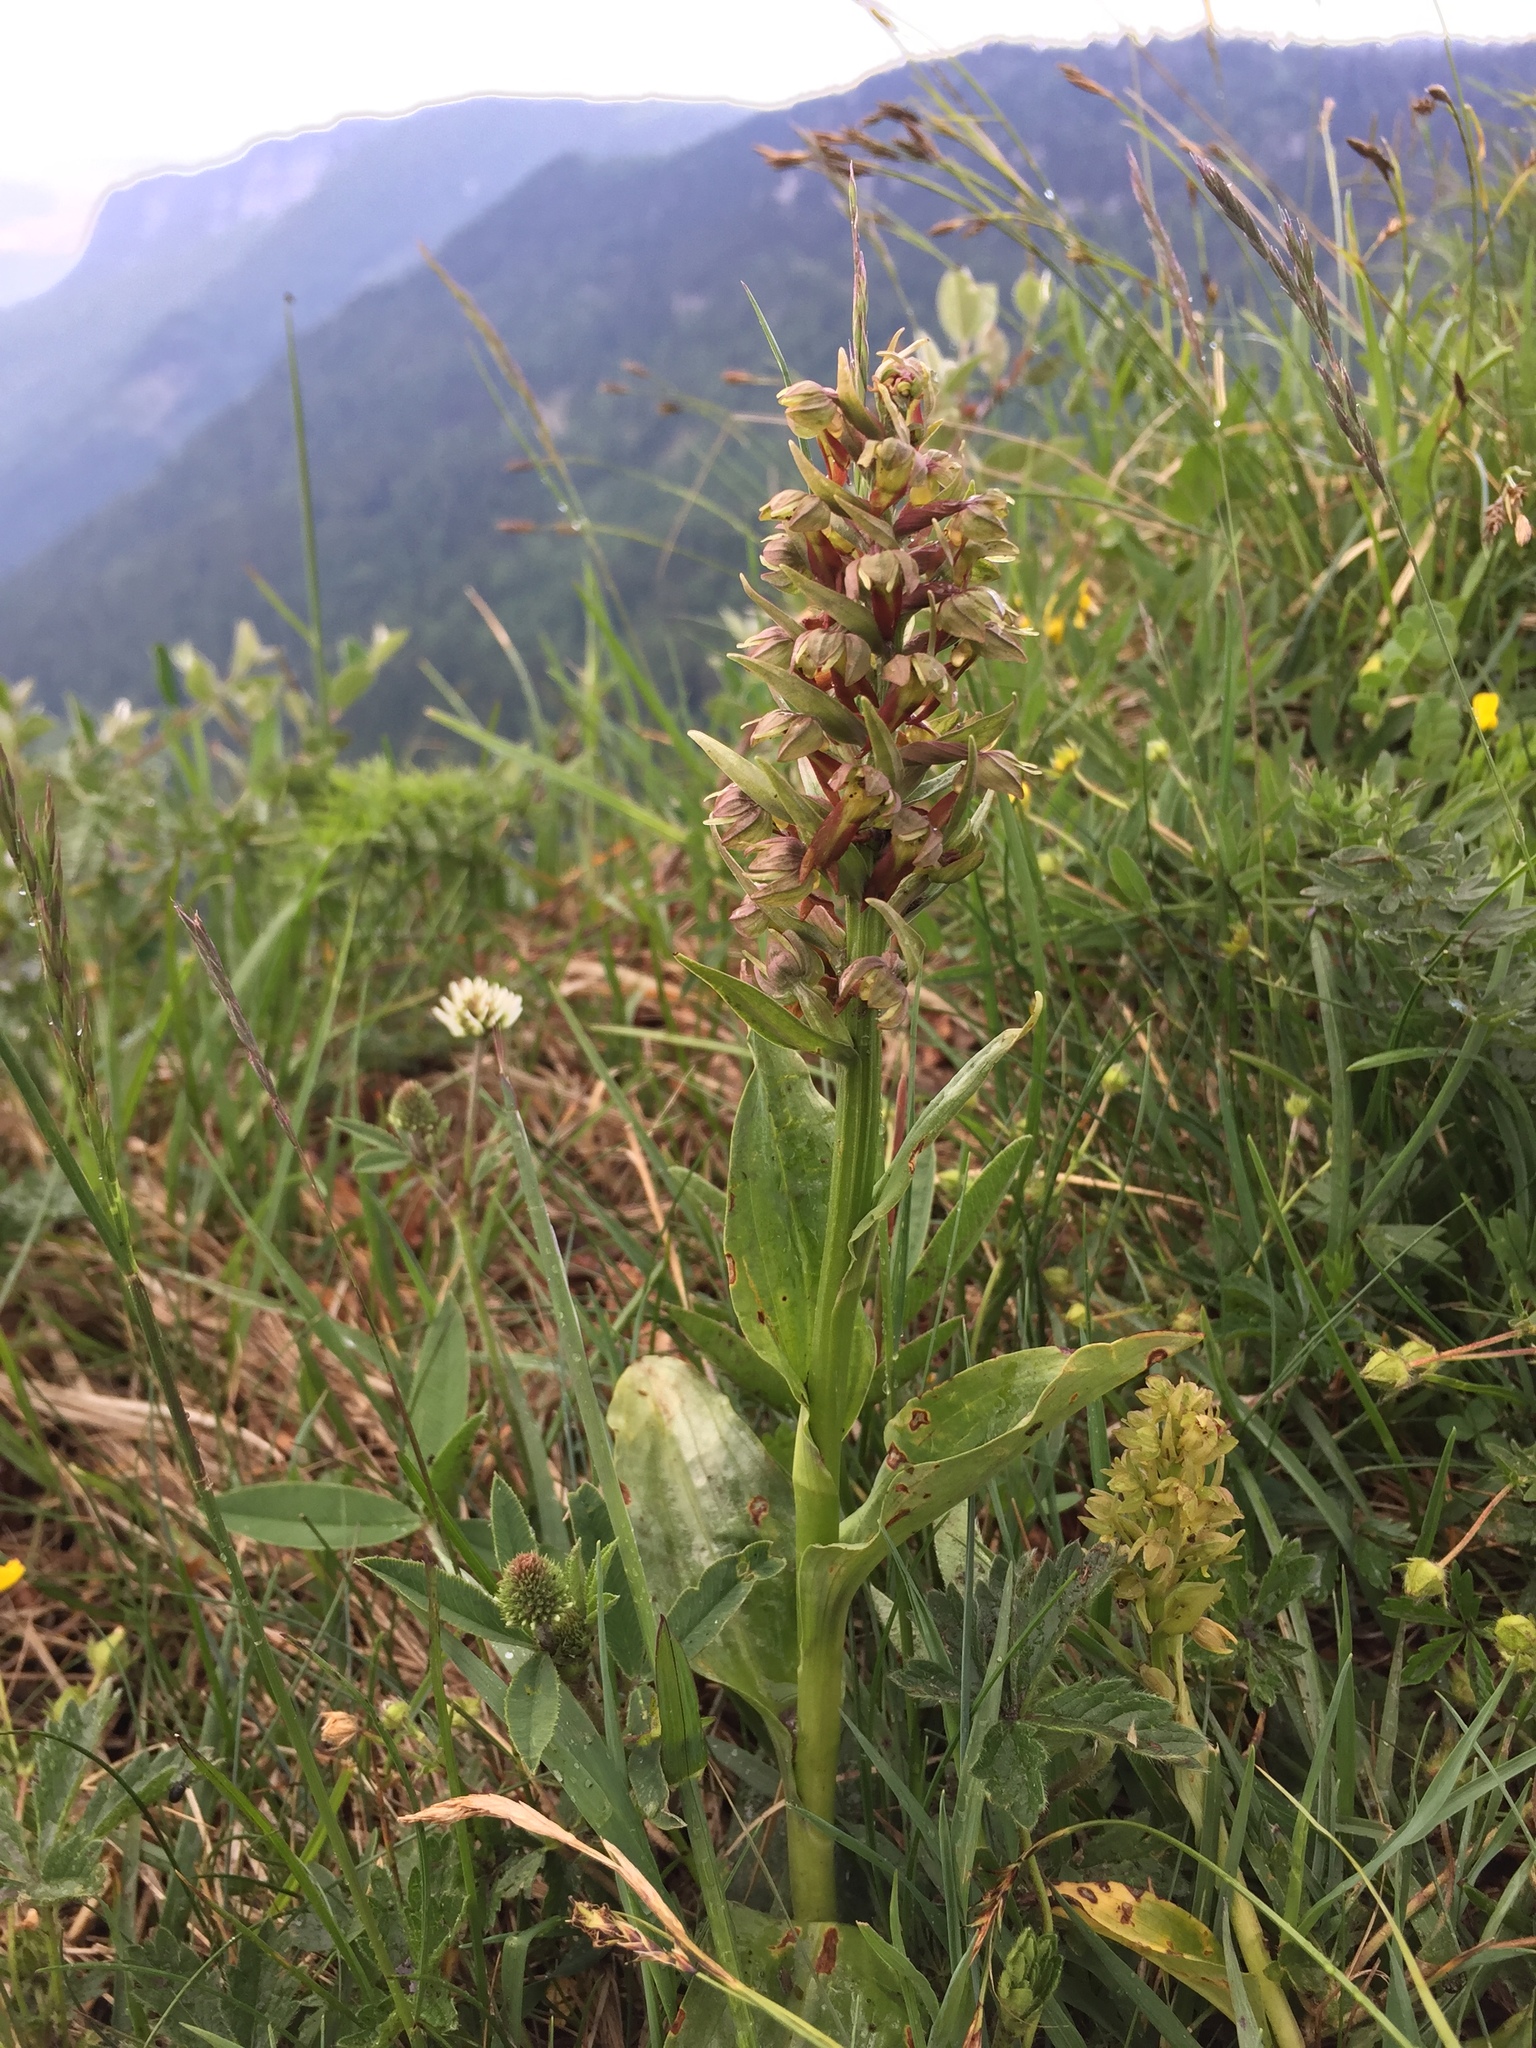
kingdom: Plantae
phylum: Tracheophyta
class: Liliopsida
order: Asparagales
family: Orchidaceae
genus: Dactylorhiza
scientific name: Dactylorhiza viridis
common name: Longbract frog orchid
